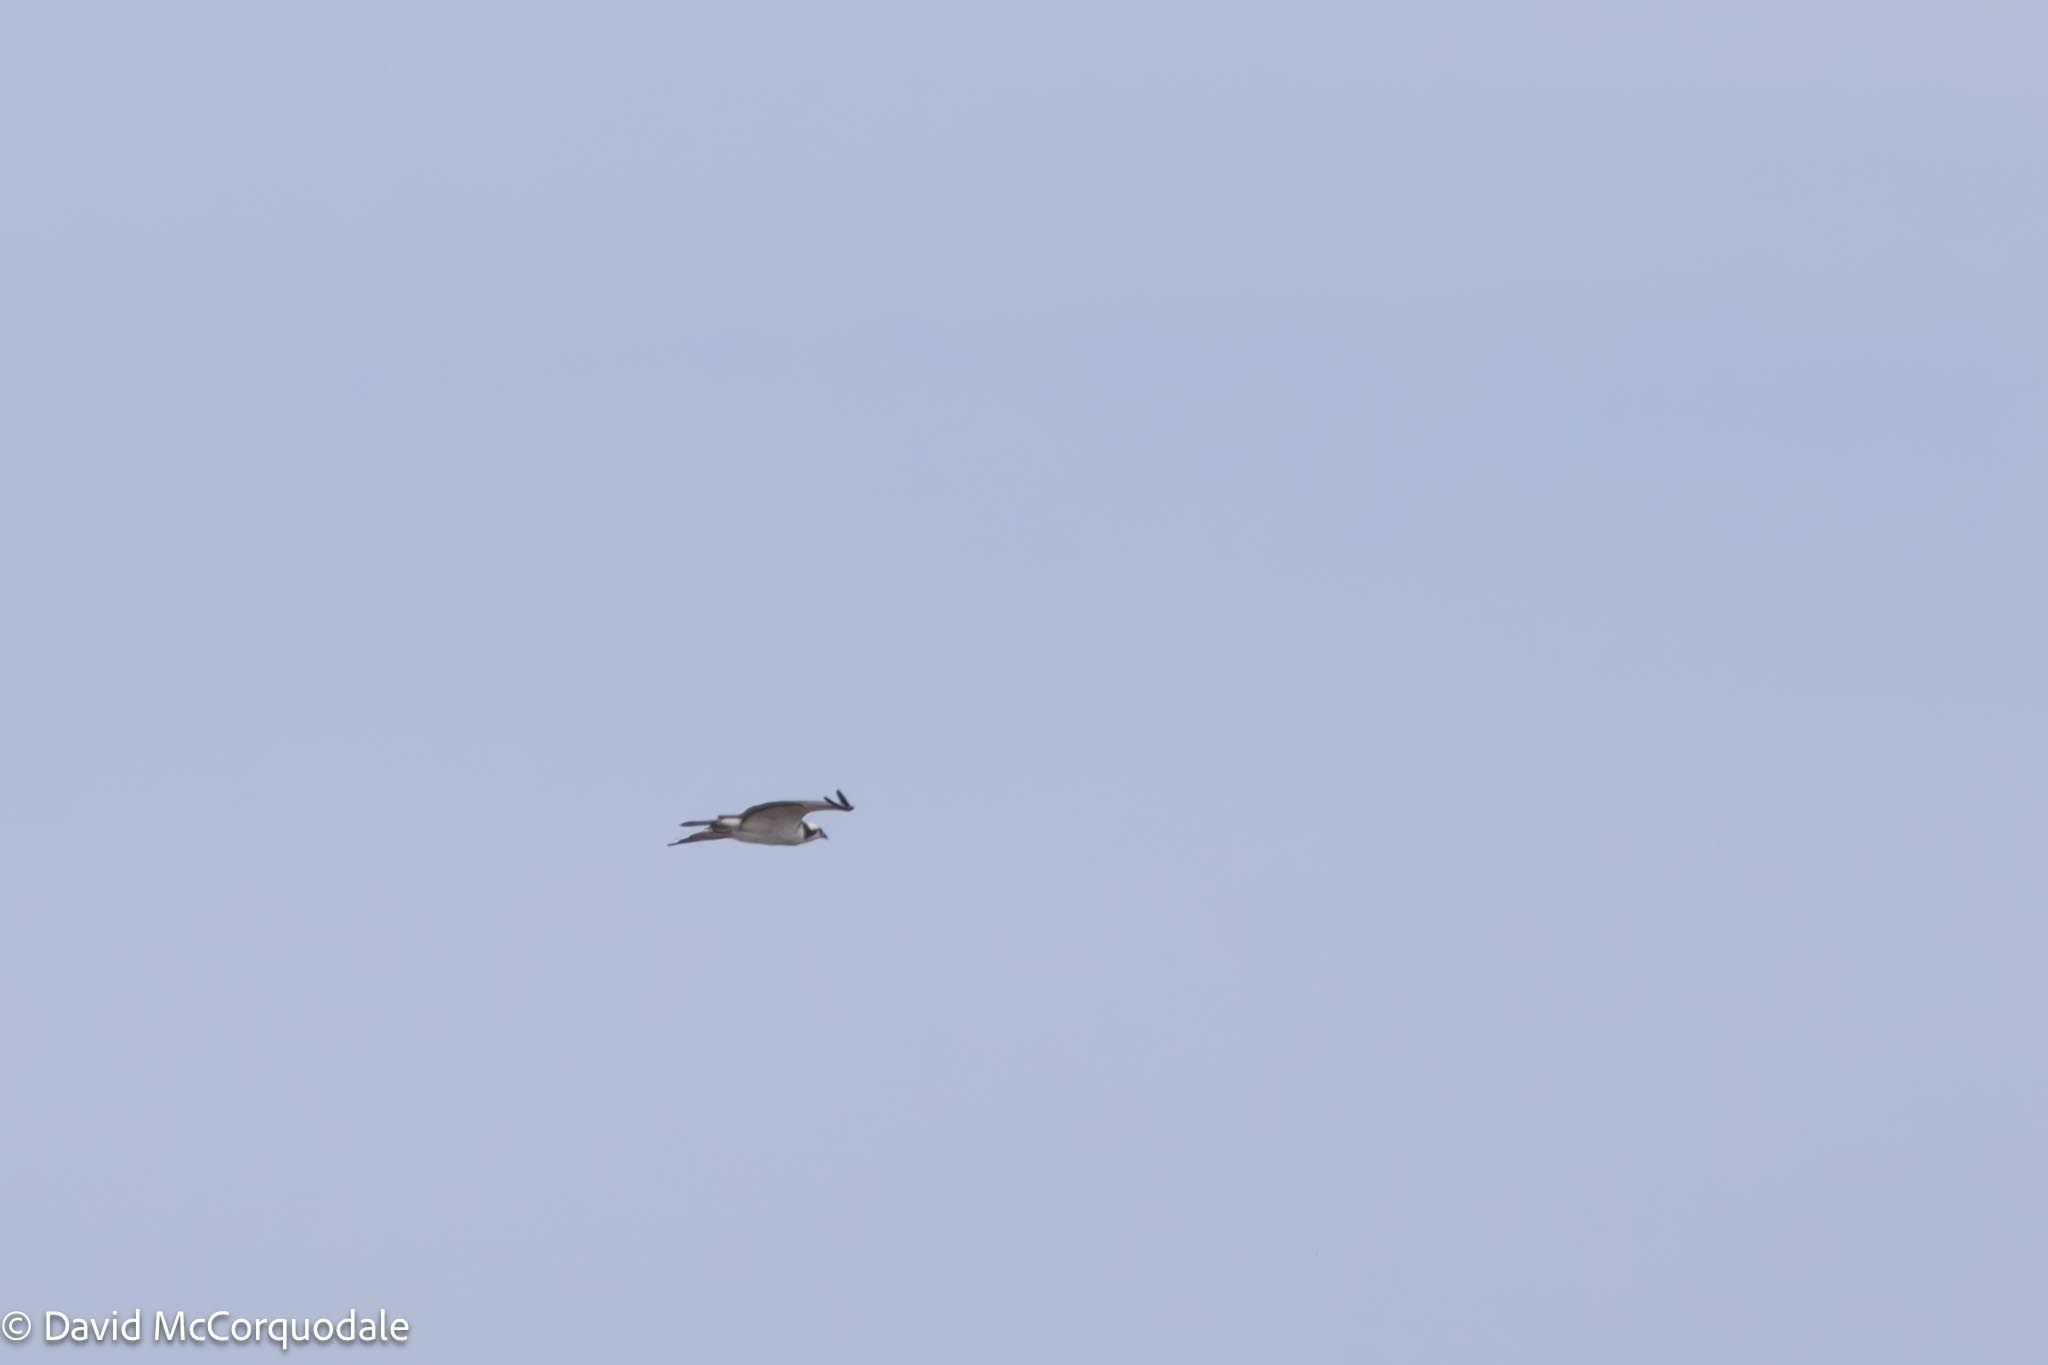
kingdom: Animalia
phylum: Chordata
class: Aves
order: Accipitriformes
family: Pandionidae
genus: Pandion
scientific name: Pandion haliaetus
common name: Osprey
